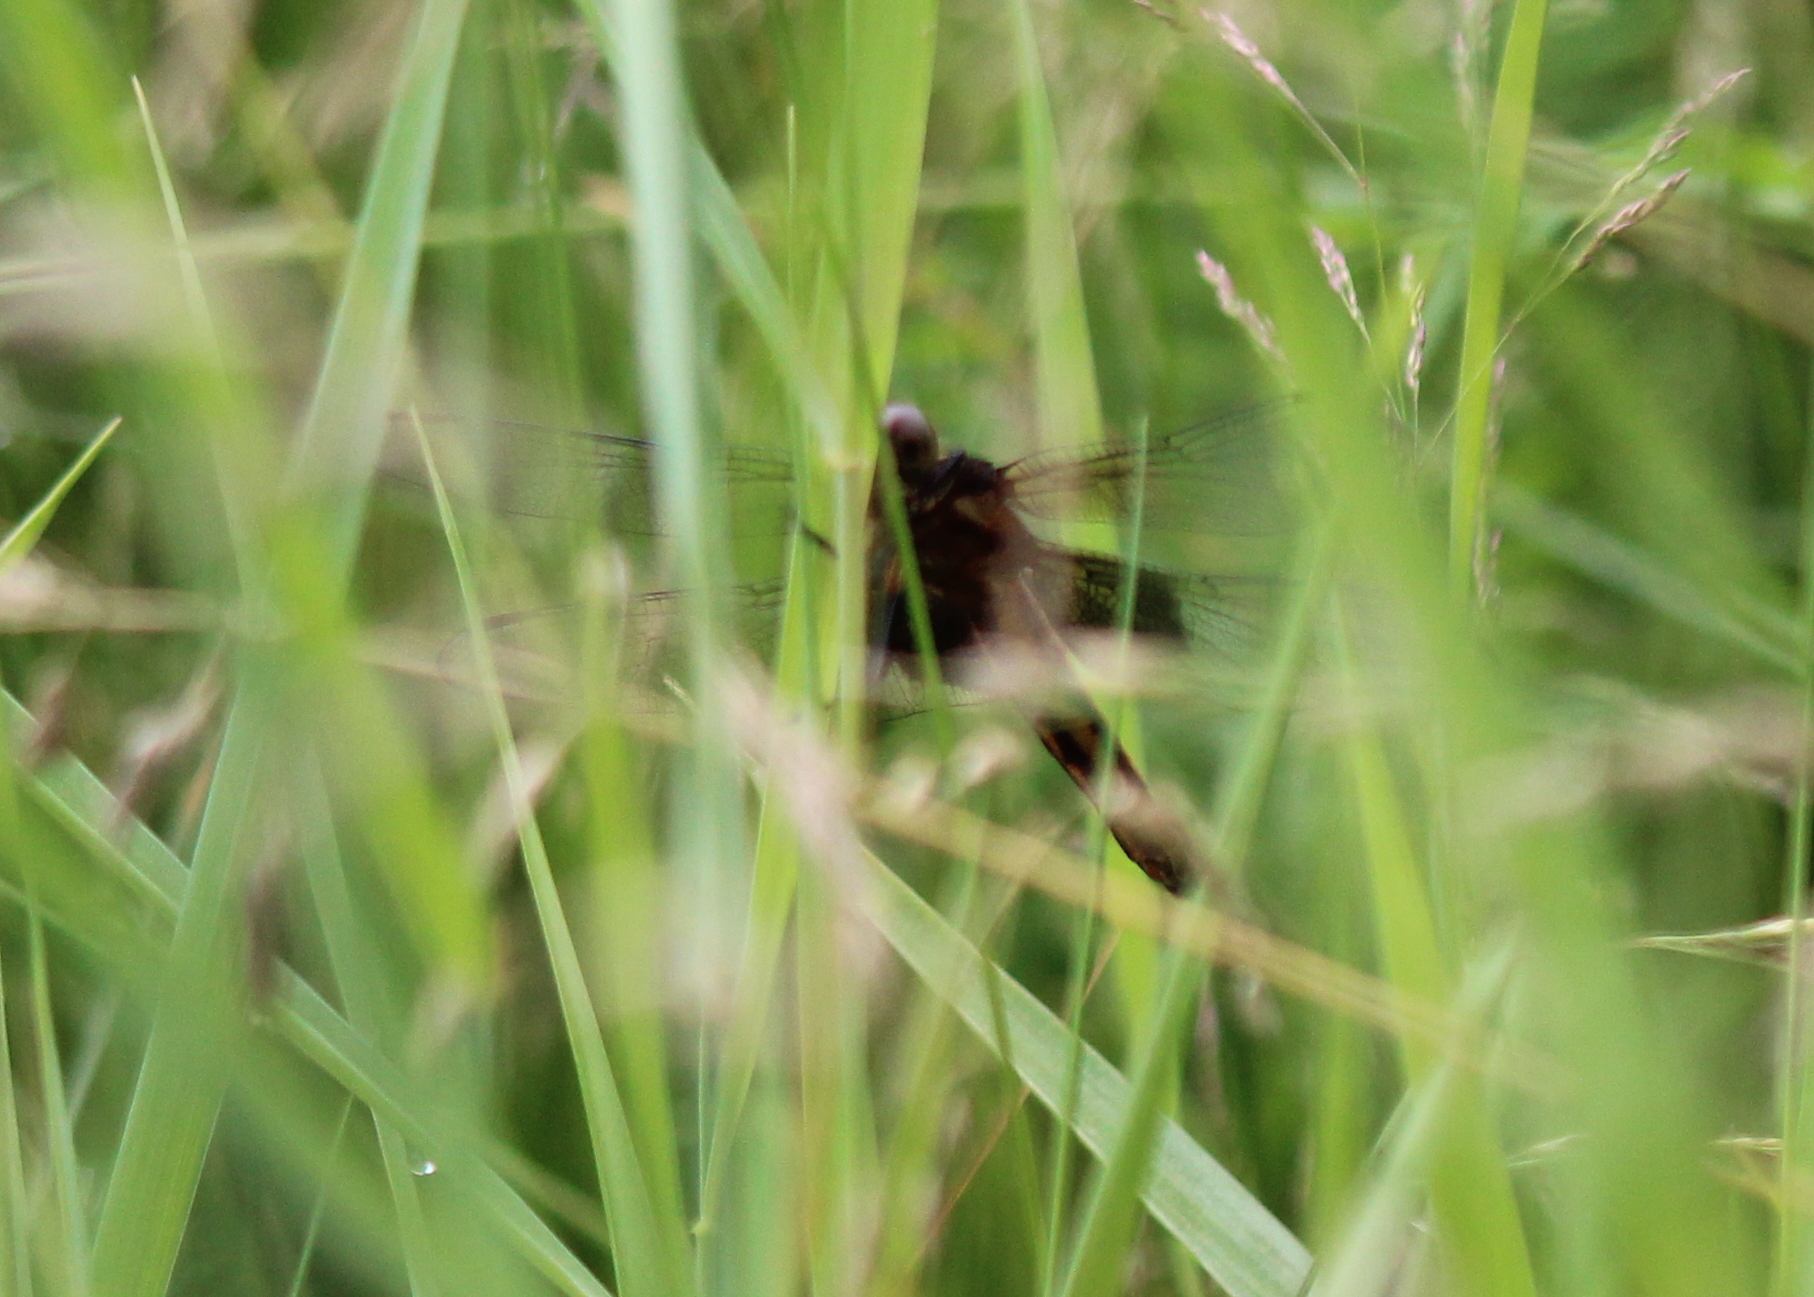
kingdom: Animalia
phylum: Arthropoda
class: Insecta
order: Odonata
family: Libellulidae
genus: Libellula
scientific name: Libellula luctuosa
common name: Widow skimmer
